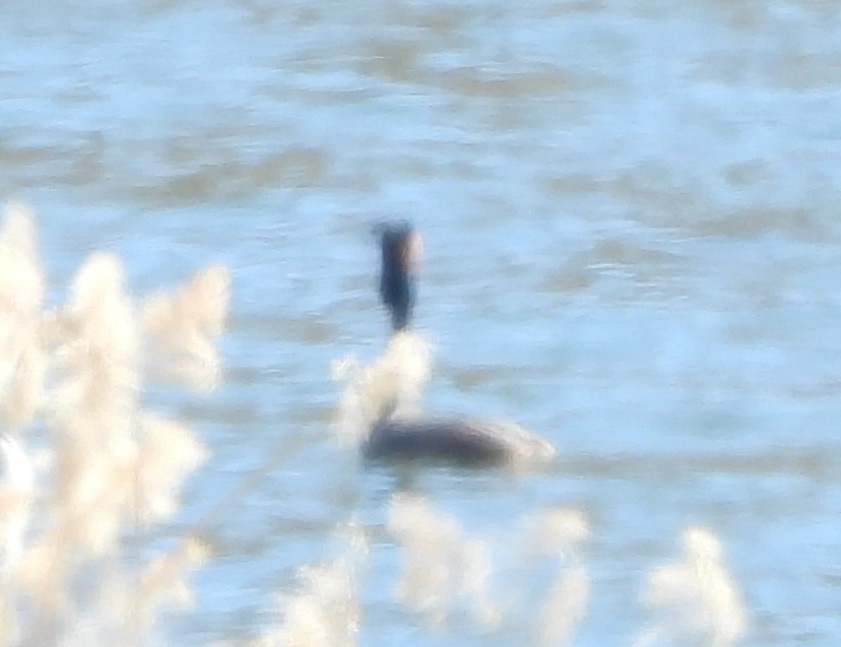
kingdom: Animalia
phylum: Chordata
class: Aves
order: Podicipediformes
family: Podicipedidae
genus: Podiceps
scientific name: Podiceps cristatus
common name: Great crested grebe
